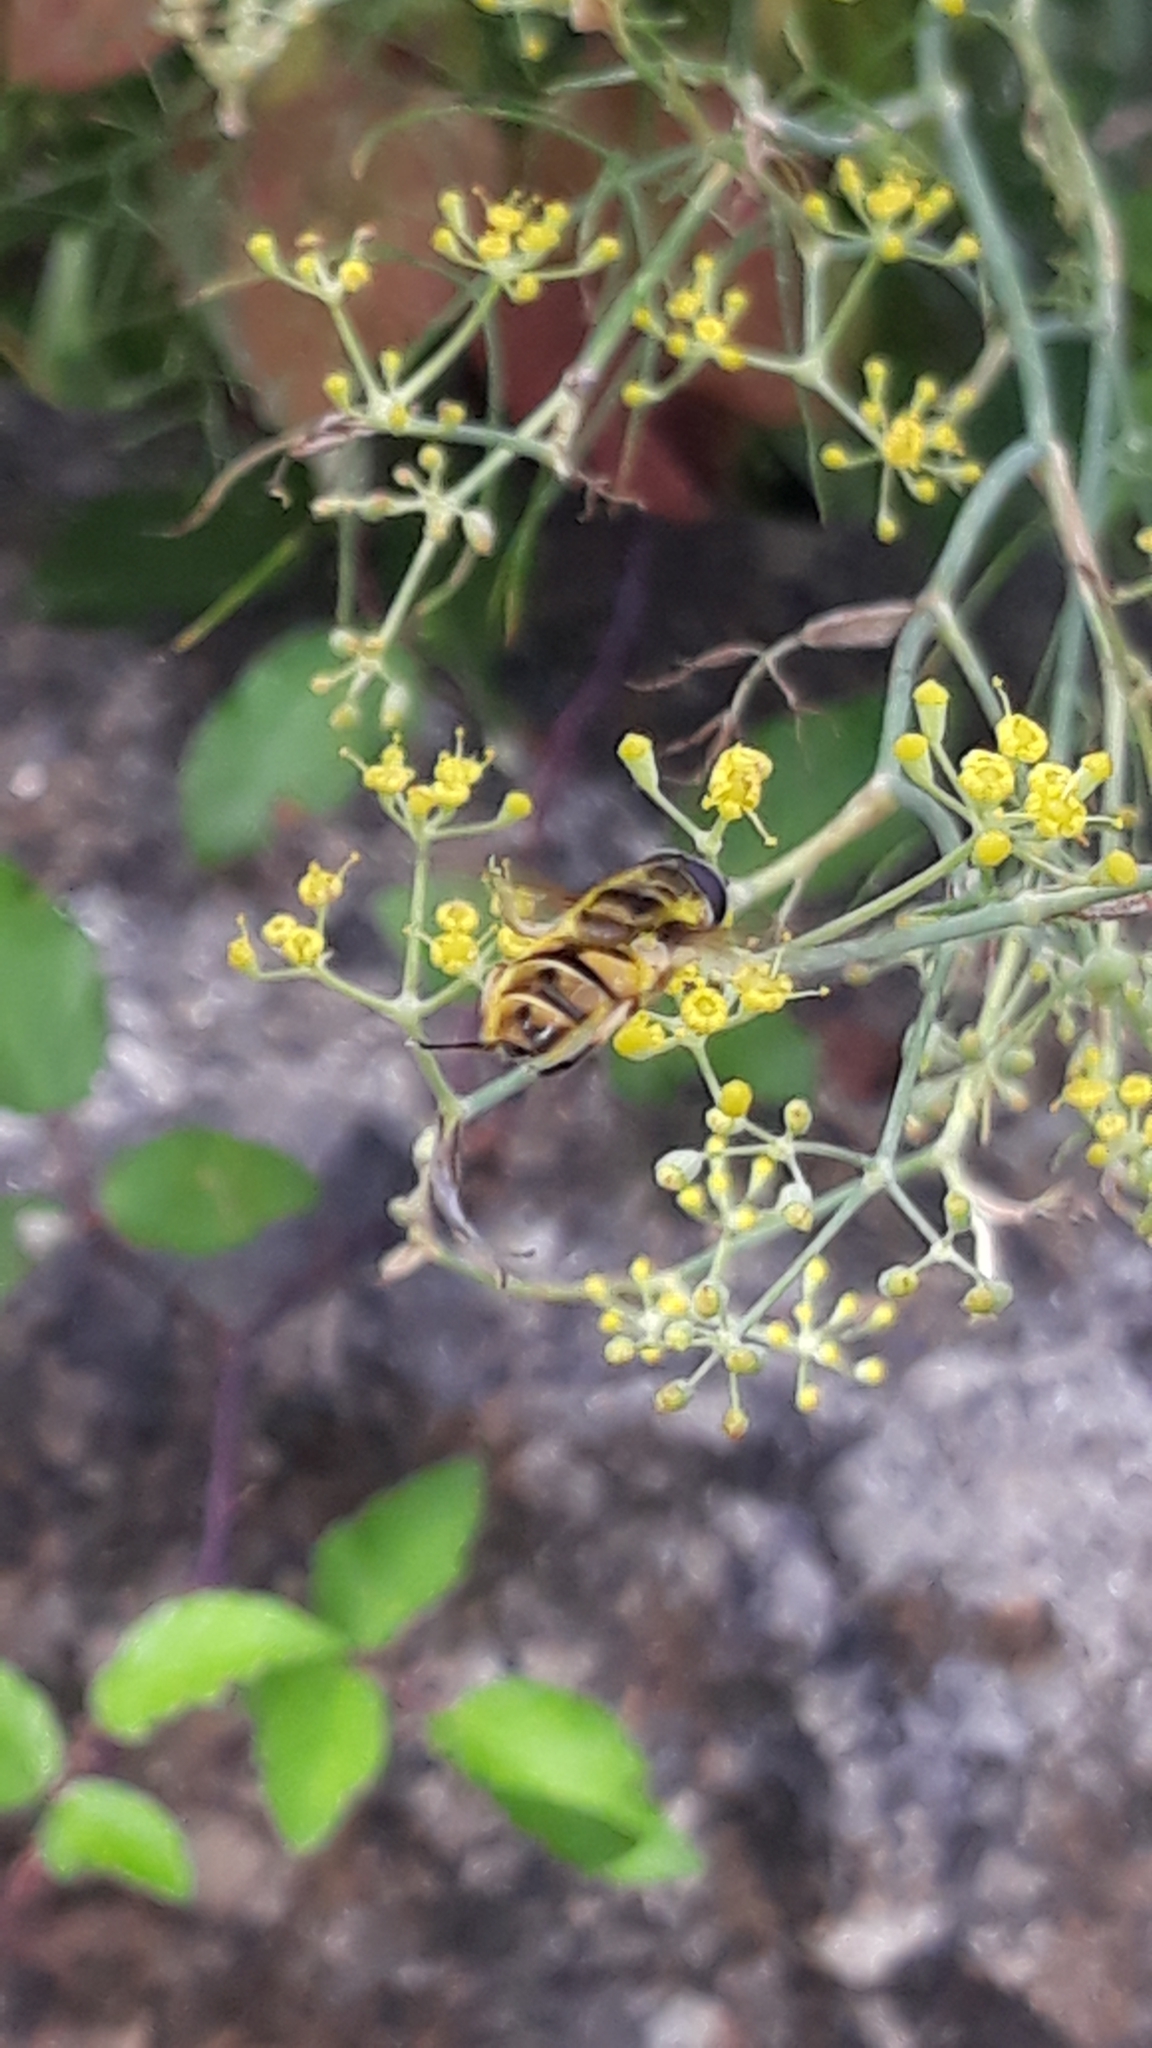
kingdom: Animalia
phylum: Arthropoda
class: Insecta
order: Diptera
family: Syrphidae
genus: Myathropa
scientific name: Myathropa florea
